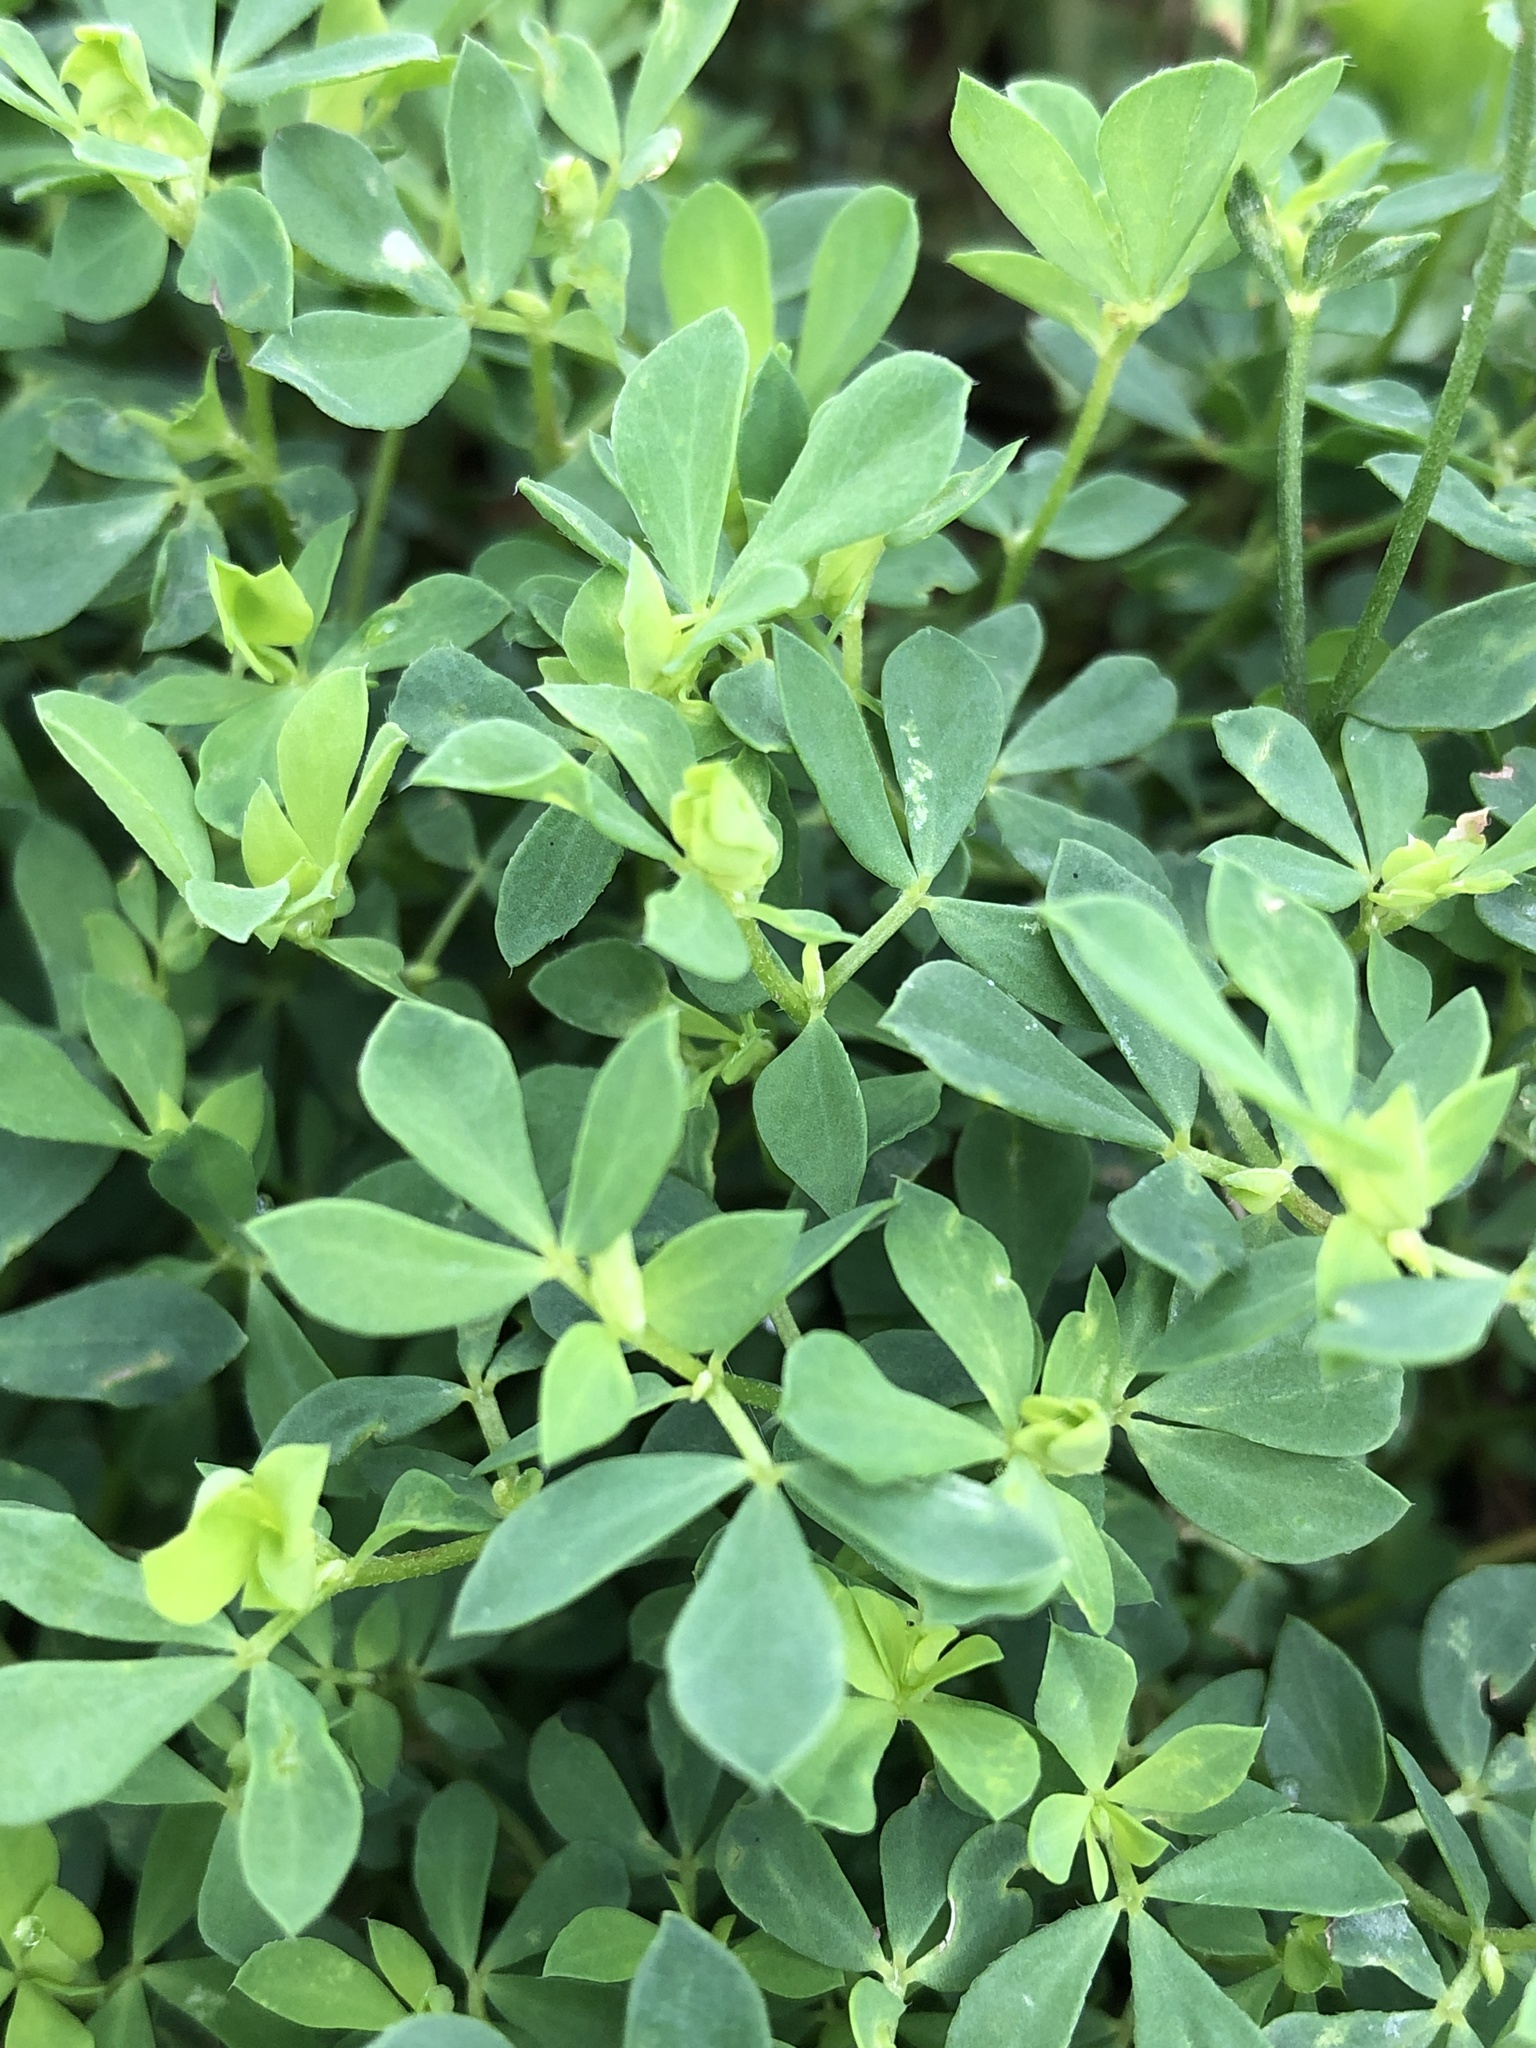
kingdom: Plantae
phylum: Tracheophyta
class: Magnoliopsida
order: Fabales
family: Fabaceae
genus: Lotus
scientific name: Lotus corniculatus
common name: Common bird's-foot-trefoil
